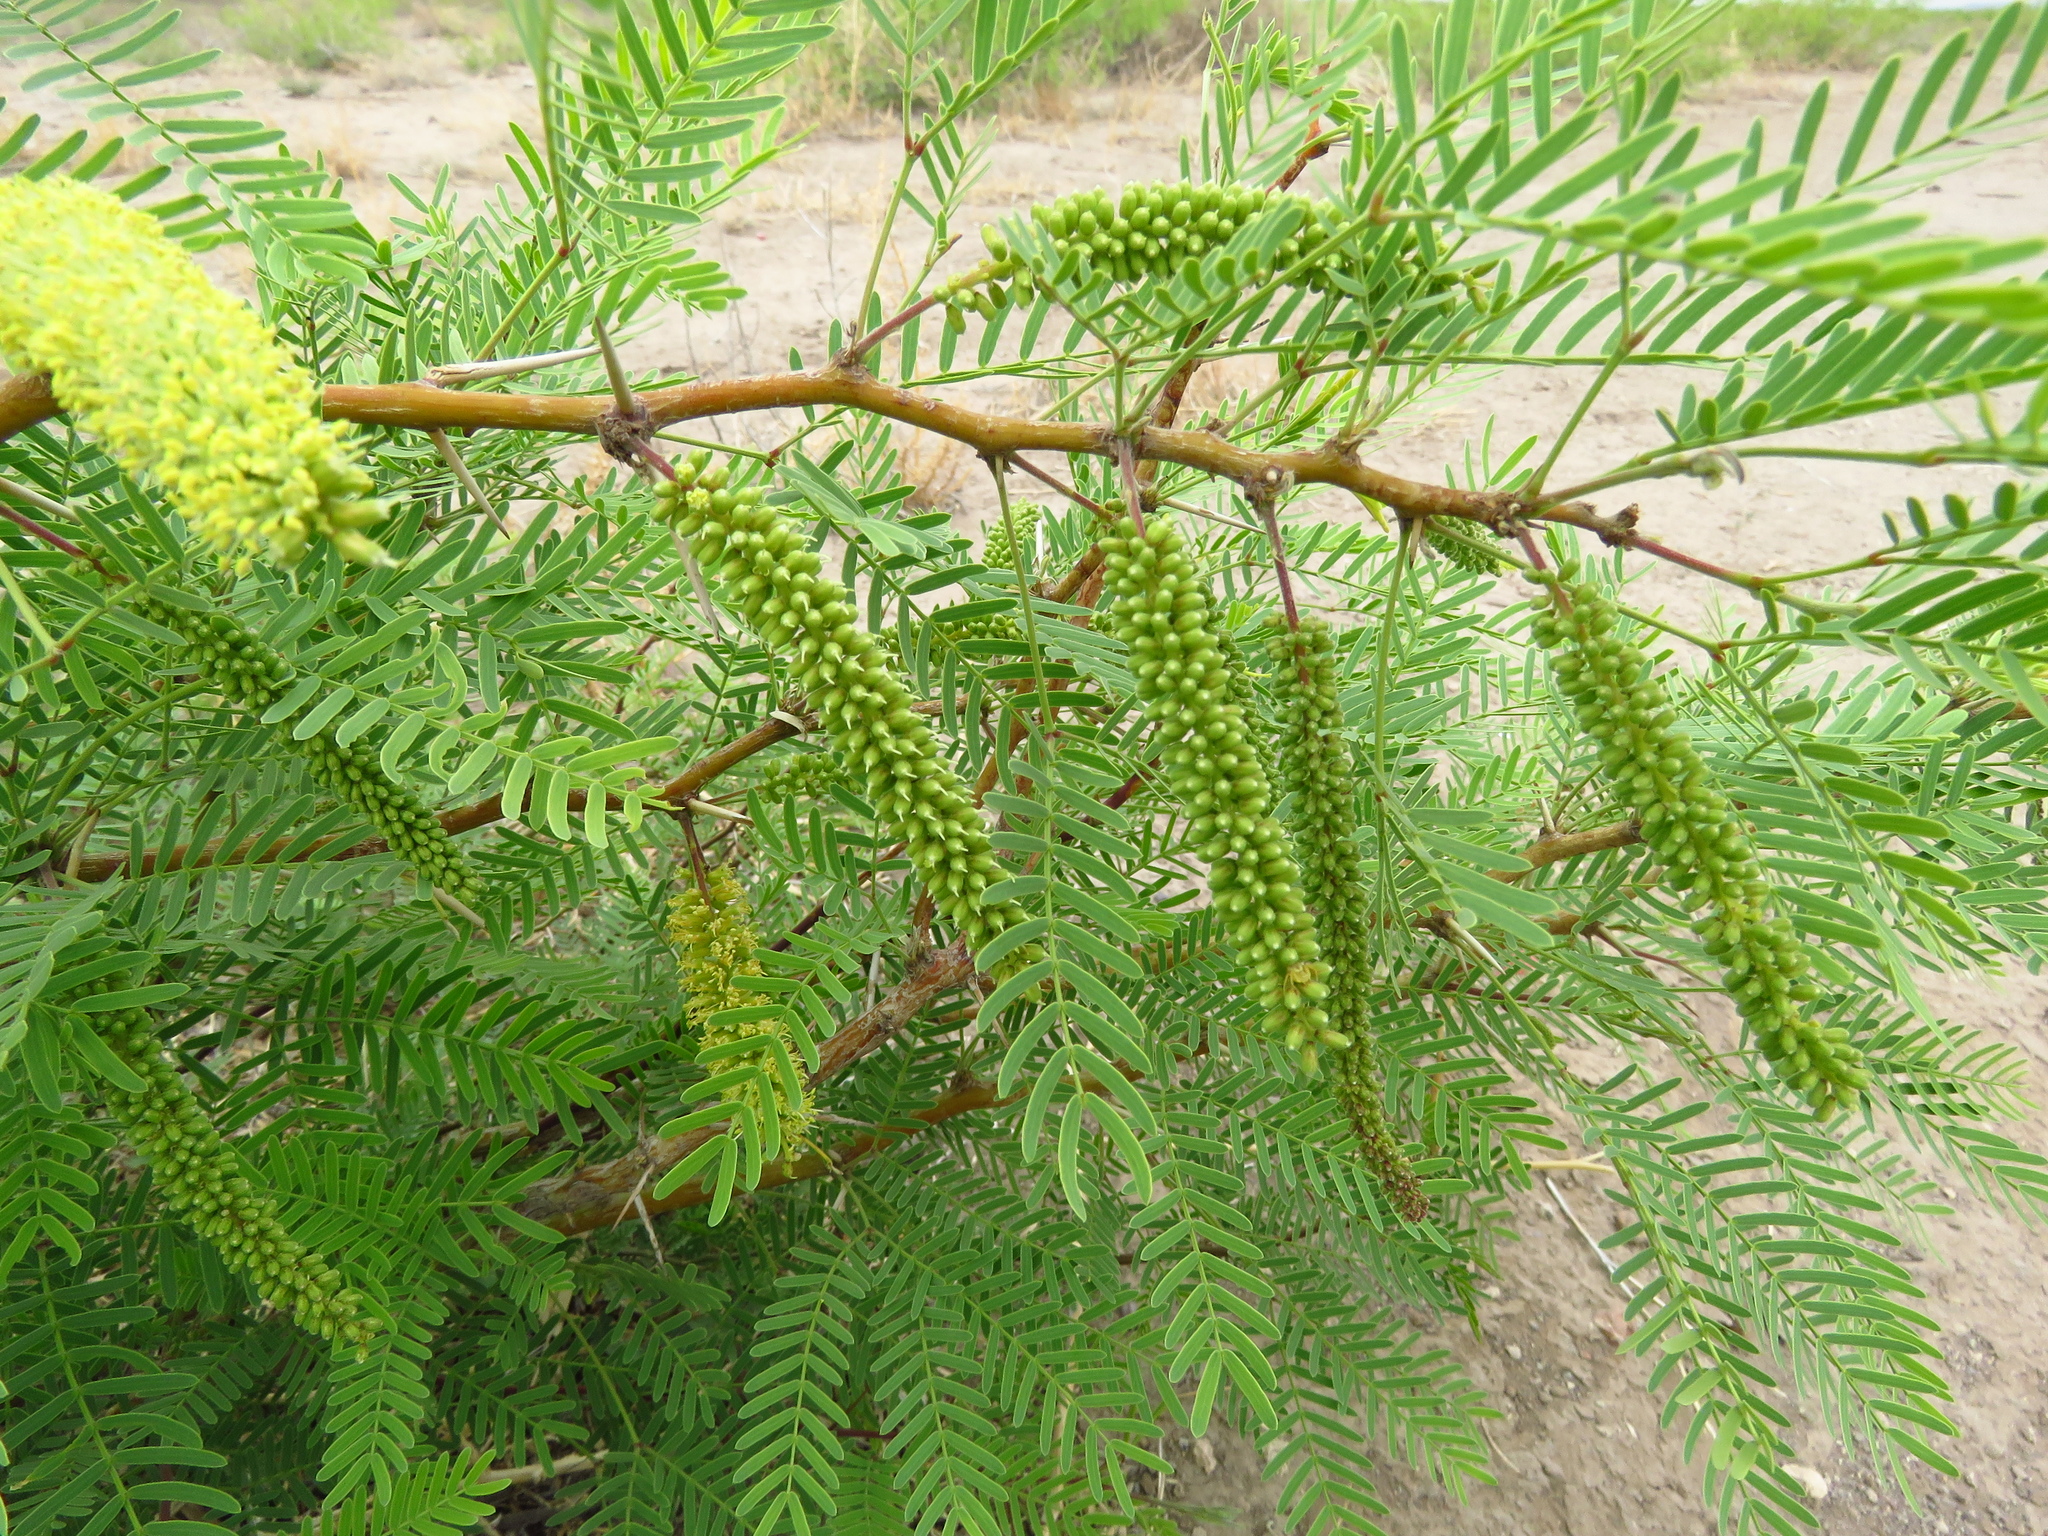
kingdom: Plantae
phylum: Tracheophyta
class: Magnoliopsida
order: Fabales
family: Fabaceae
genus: Prosopis
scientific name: Prosopis glandulosa
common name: Honey mesquite
